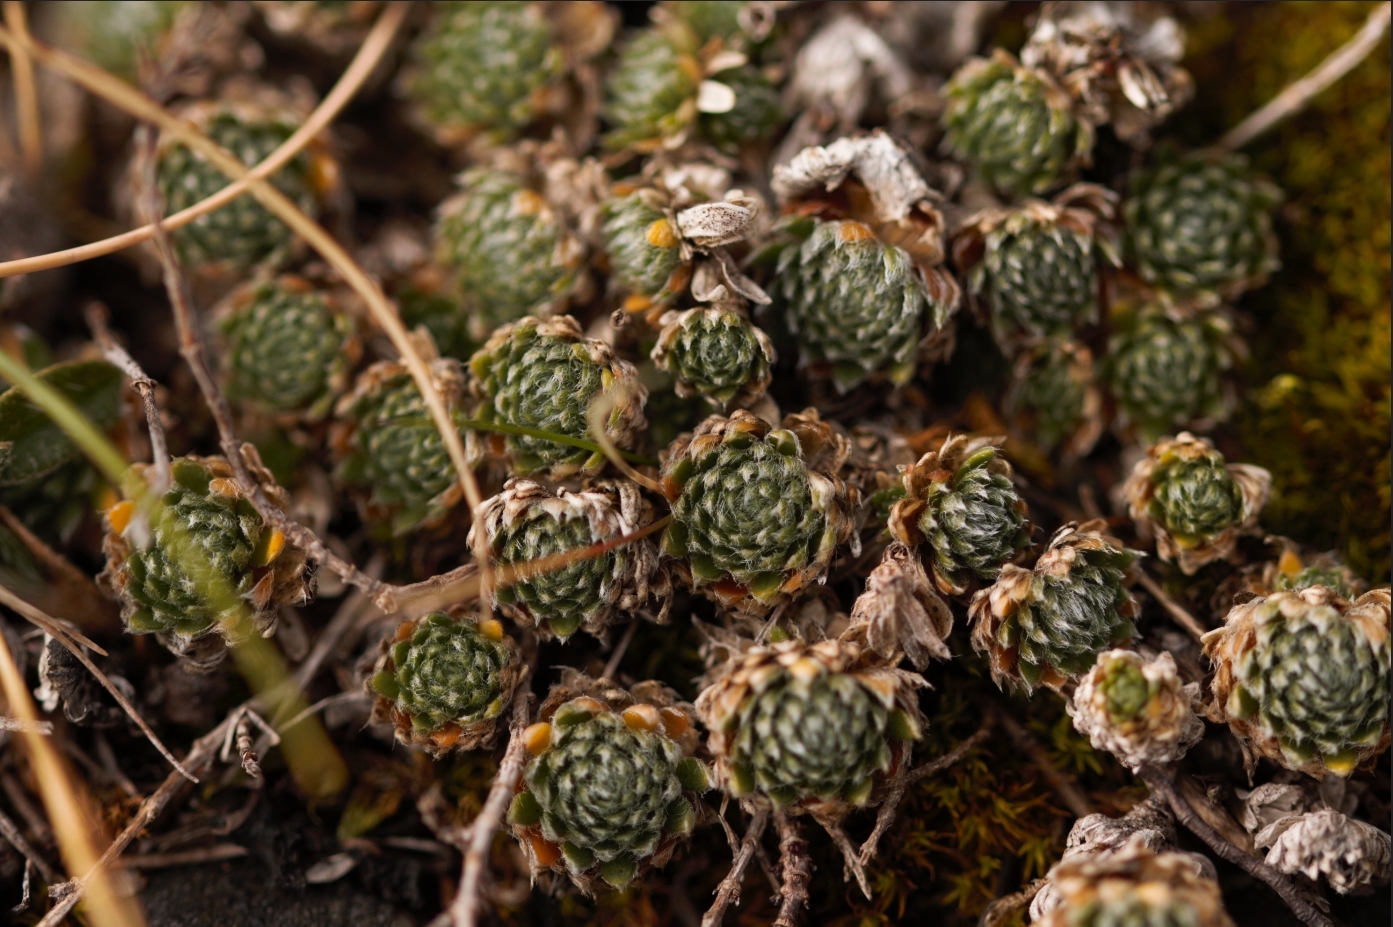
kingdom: Plantae
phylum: Tracheophyta
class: Magnoliopsida
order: Ericales
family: Primulaceae
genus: Androsace
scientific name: Androsace villosa
